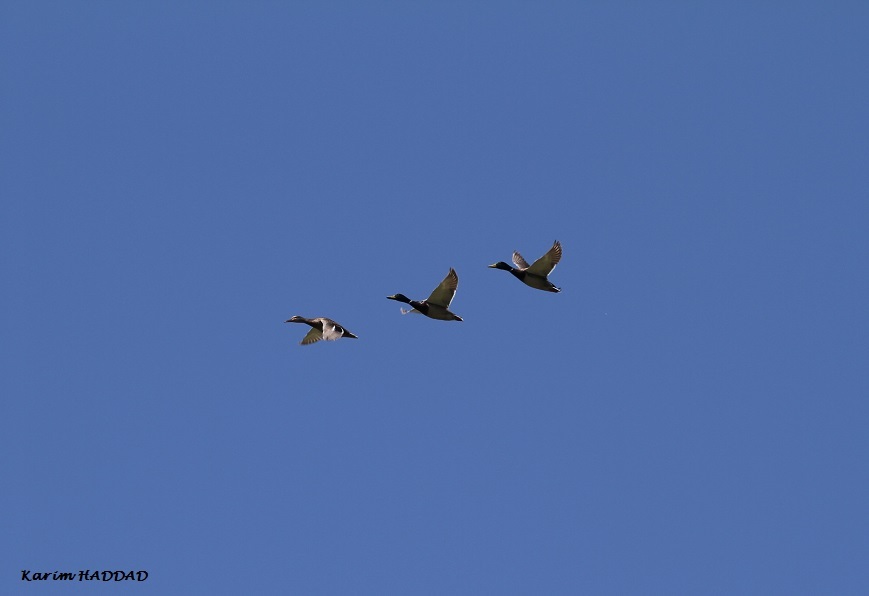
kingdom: Animalia
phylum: Chordata
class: Aves
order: Anseriformes
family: Anatidae
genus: Anas
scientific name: Anas platyrhynchos
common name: Mallard
